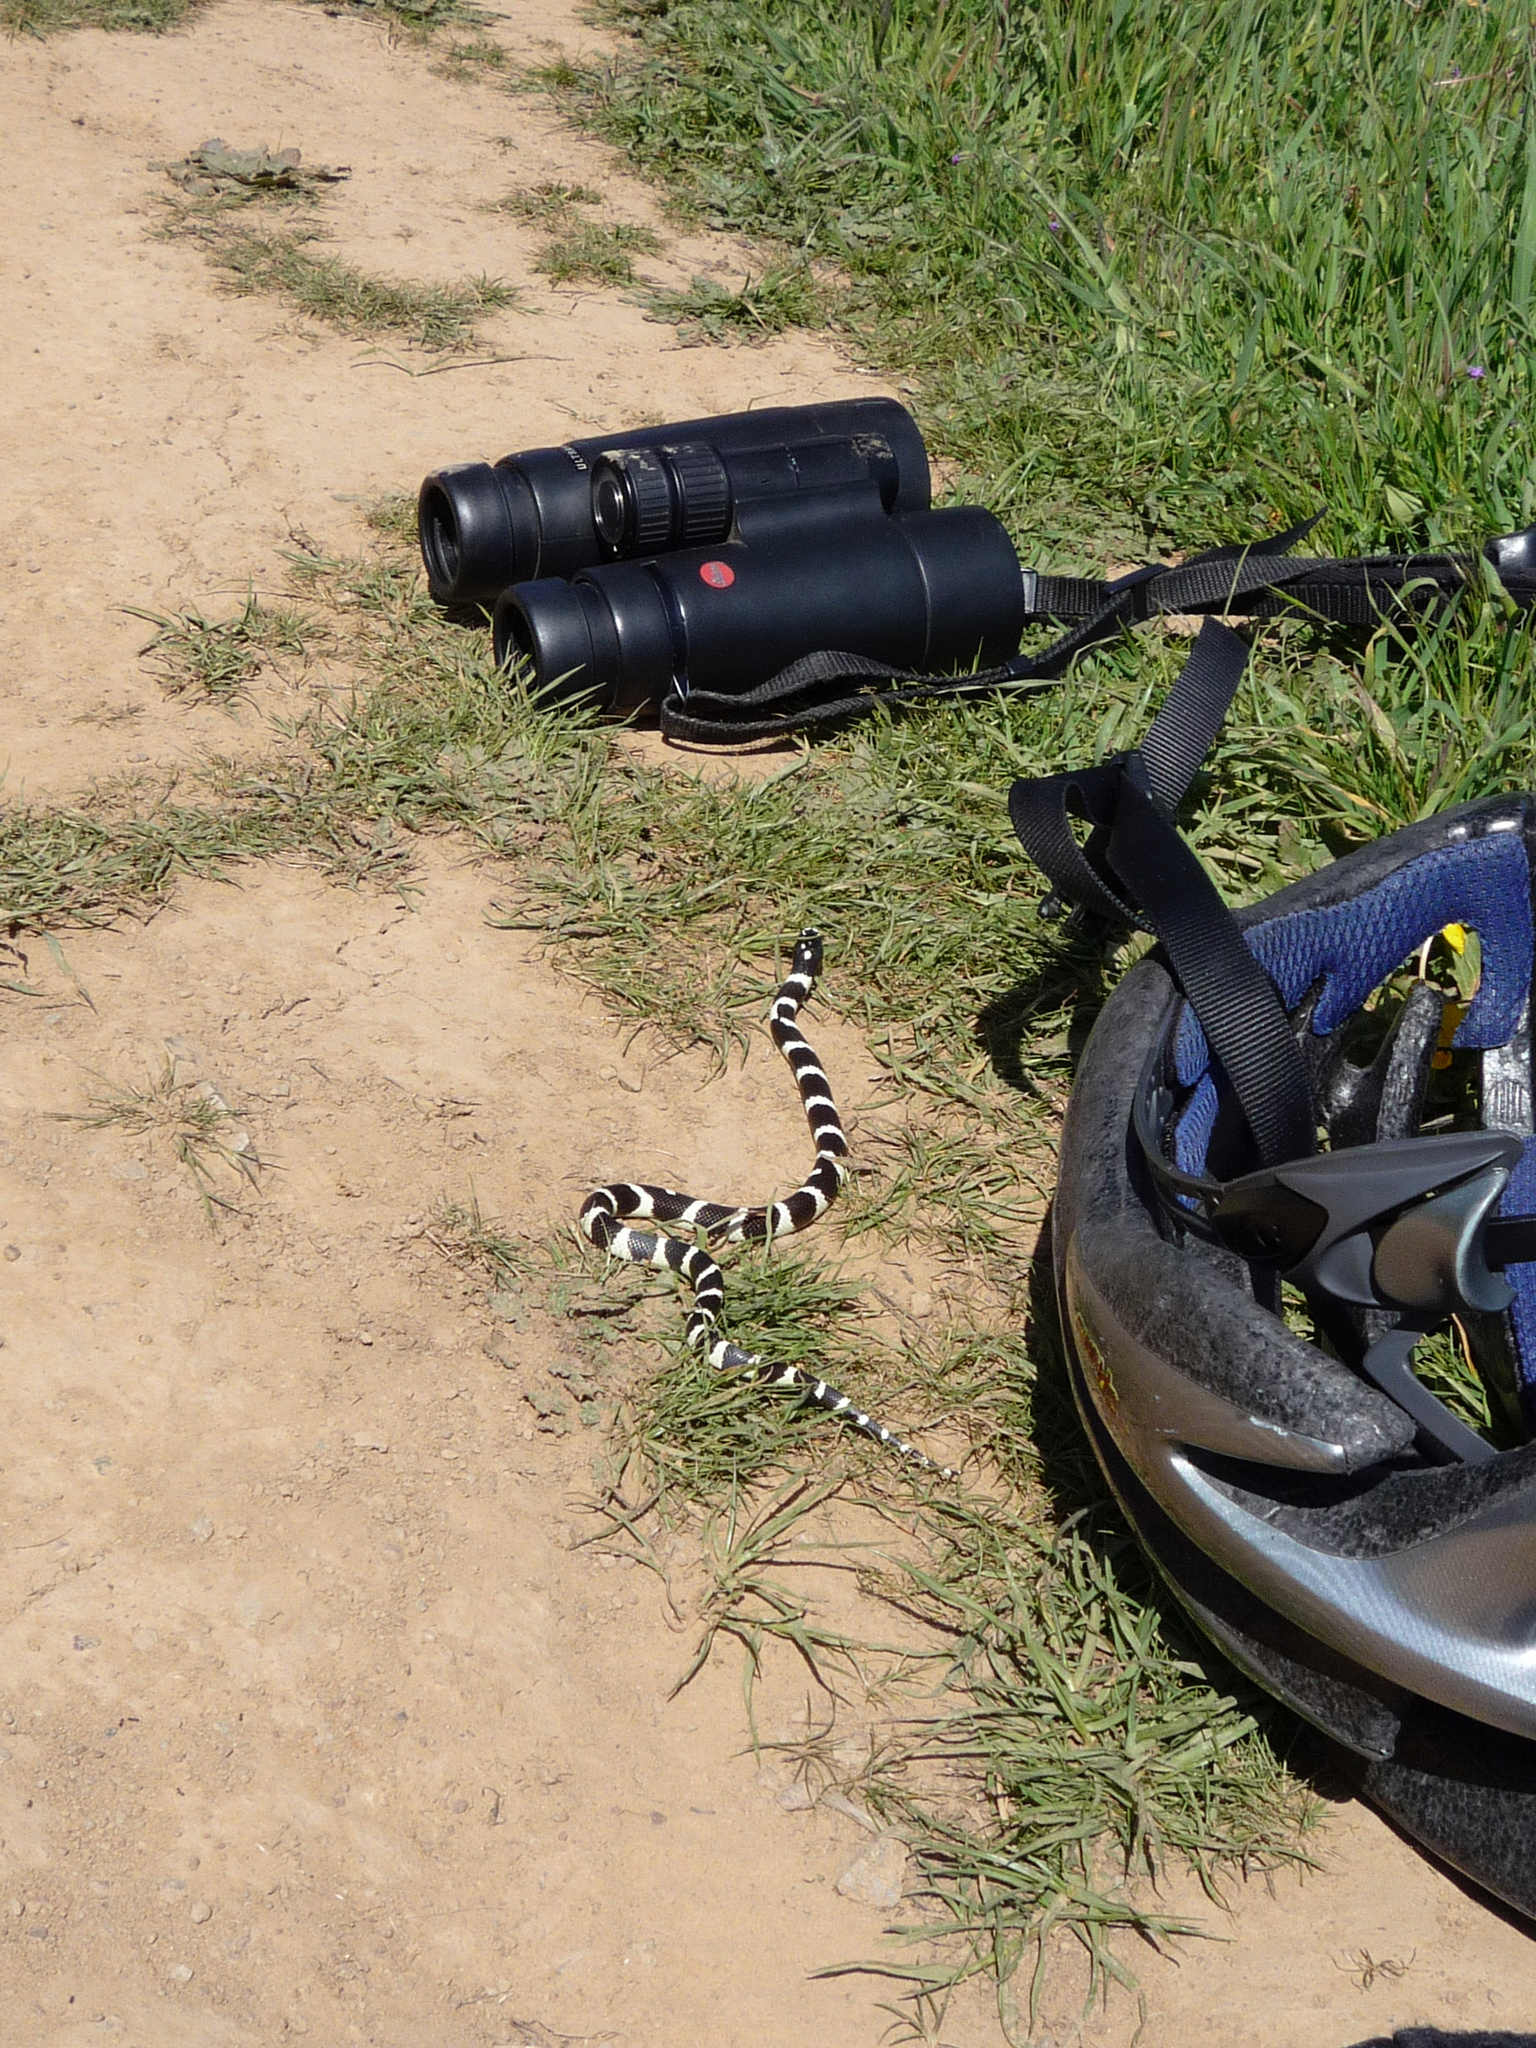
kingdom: Animalia
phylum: Chordata
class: Squamata
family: Colubridae
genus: Lampropeltis
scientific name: Lampropeltis californiae
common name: California kingsnake
